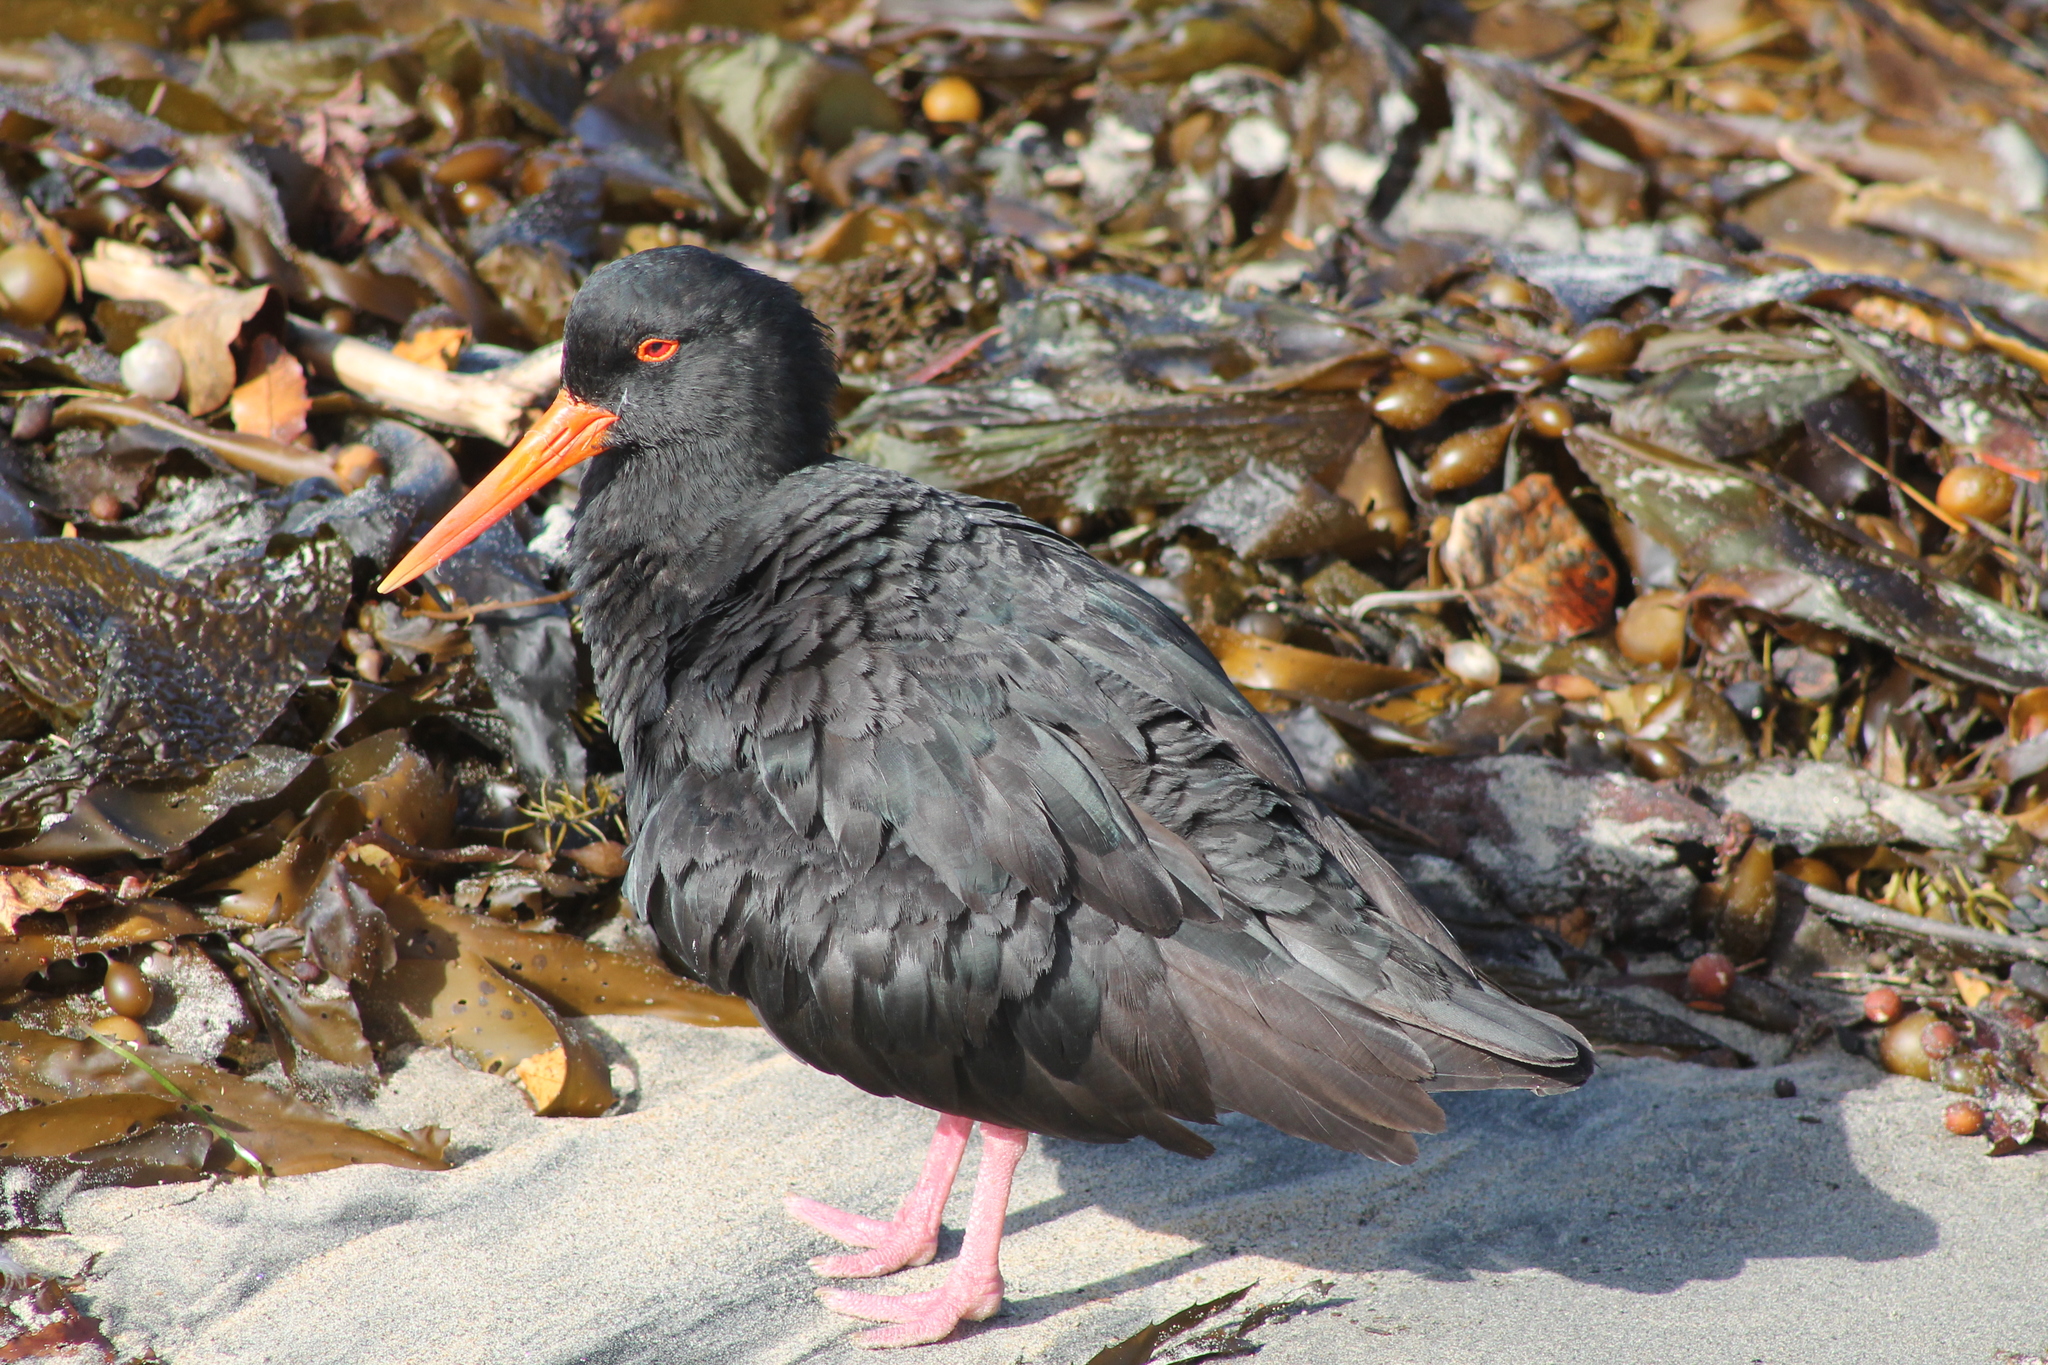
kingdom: Animalia
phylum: Chordata
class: Aves
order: Charadriiformes
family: Haematopodidae
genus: Haematopus
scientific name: Haematopus unicolor
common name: Variable oystercatcher
